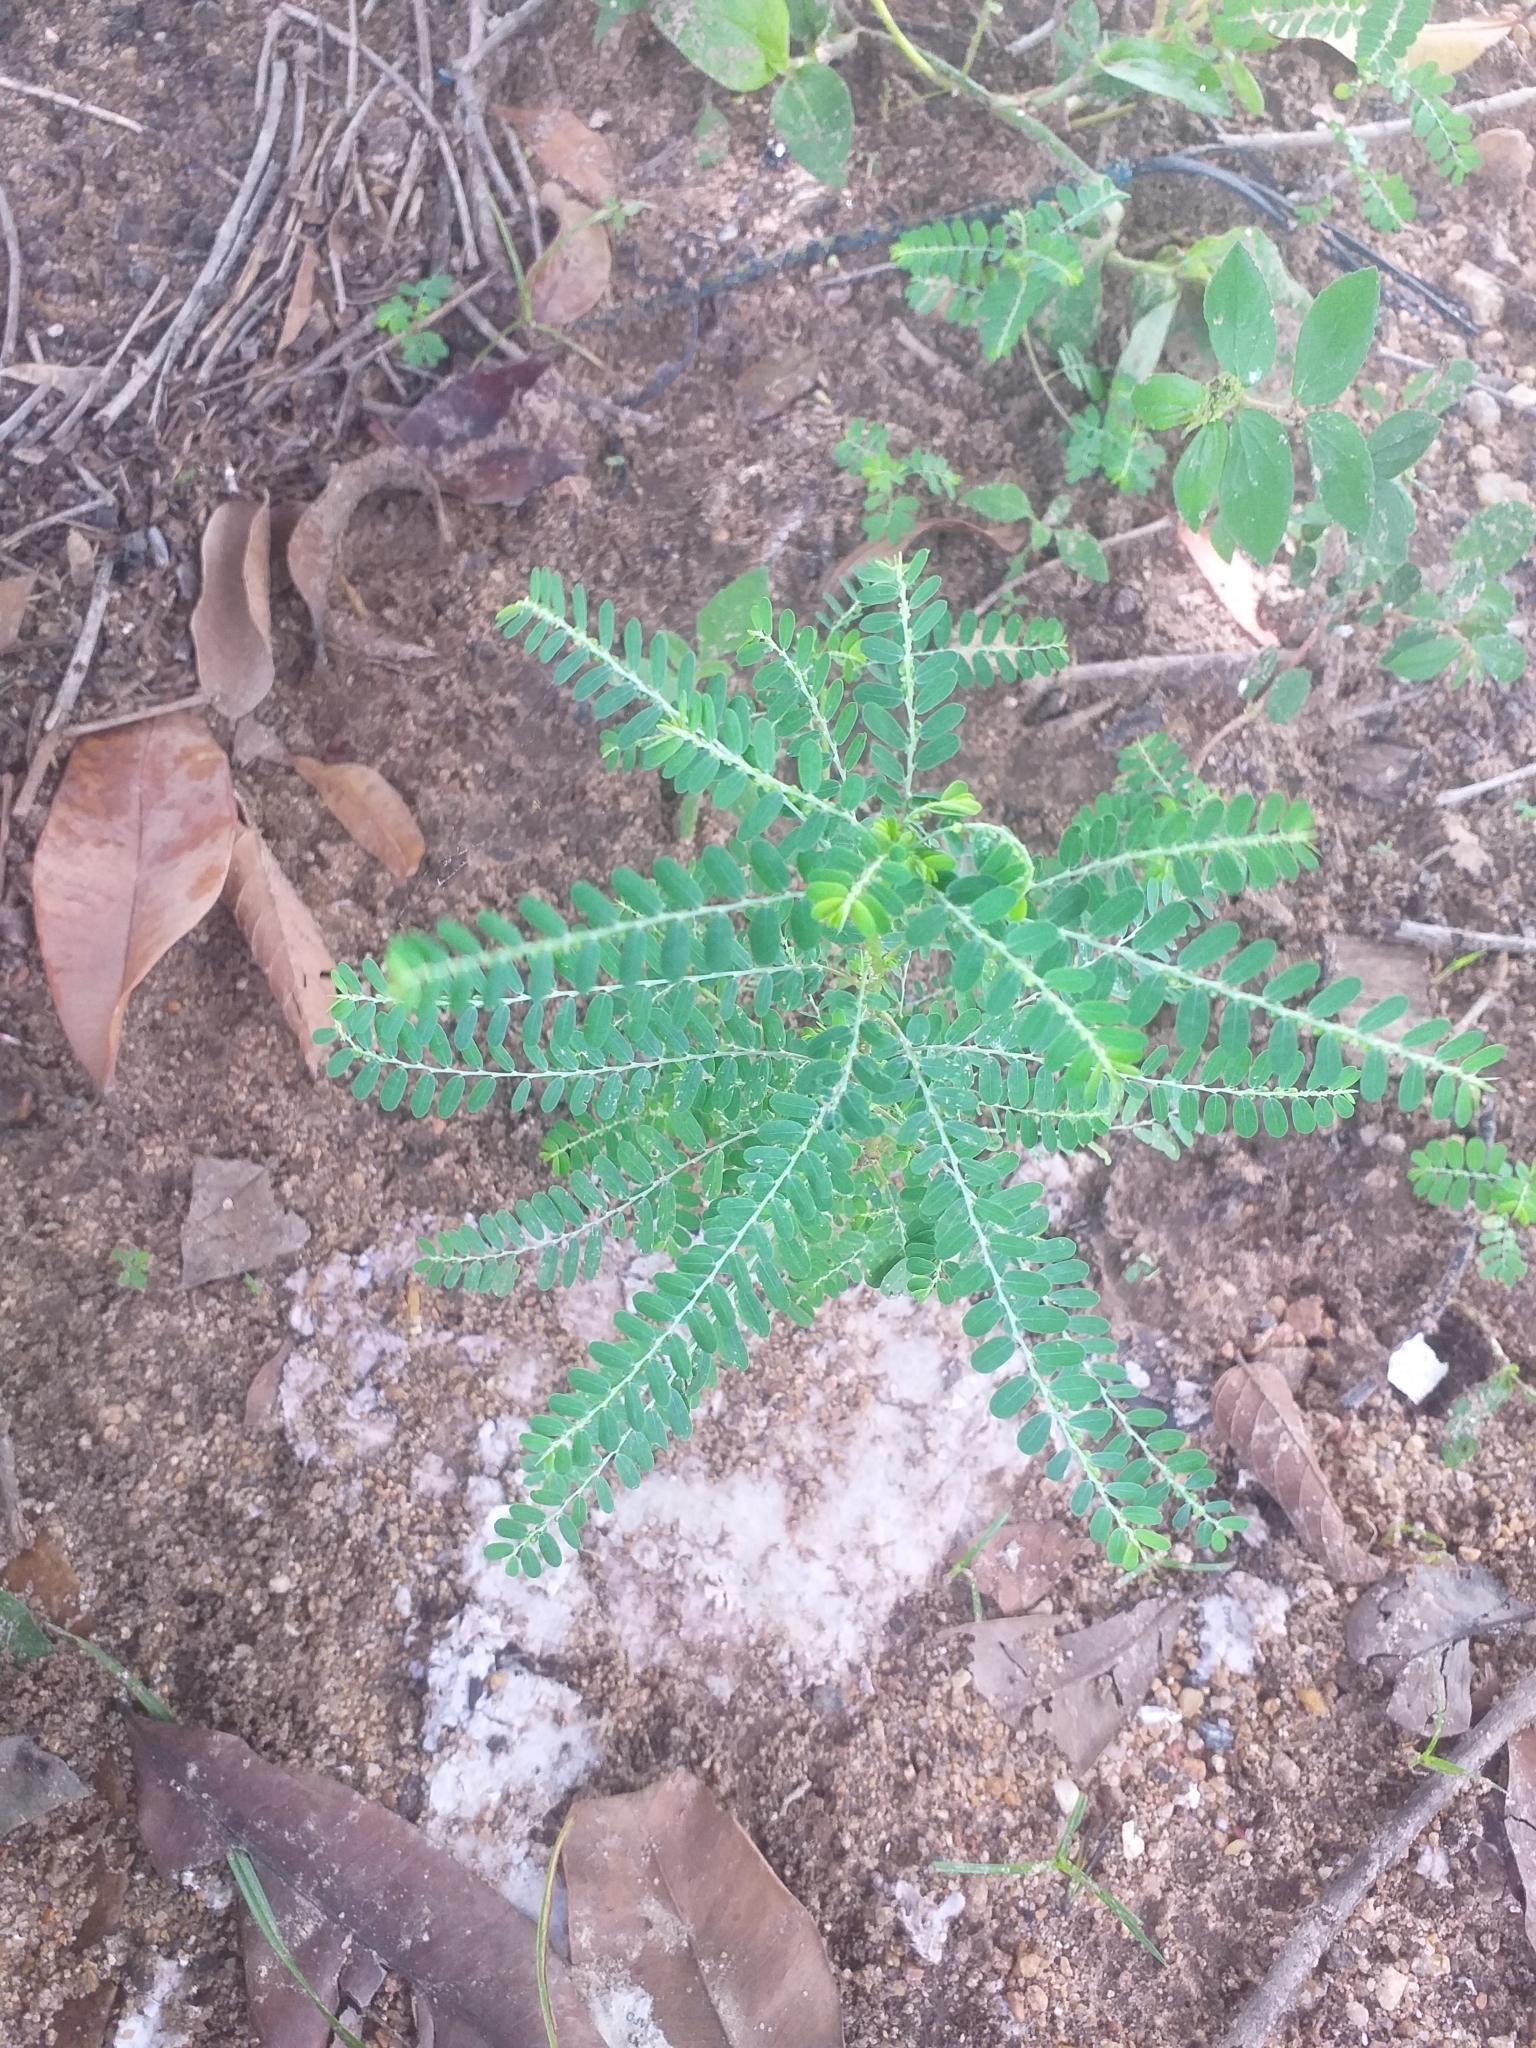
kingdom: Plantae
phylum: Tracheophyta
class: Magnoliopsida
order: Malpighiales
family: Phyllanthaceae
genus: Phyllanthus
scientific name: Phyllanthus amarus
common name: Carry me seed
